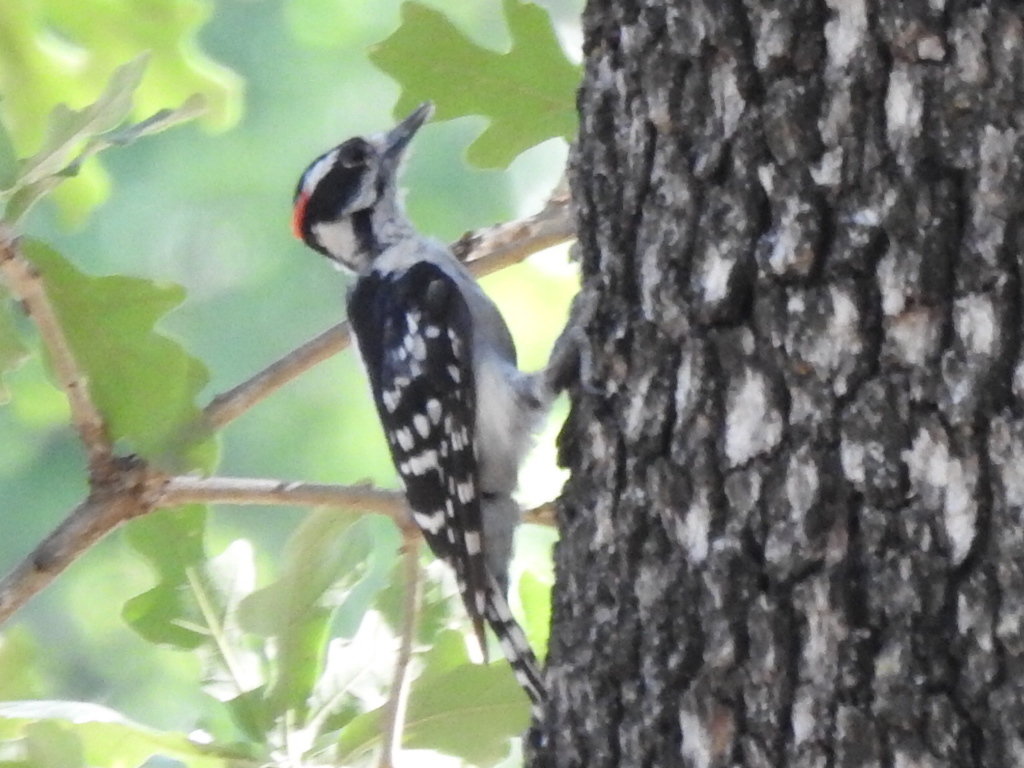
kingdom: Animalia
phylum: Chordata
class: Aves
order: Piciformes
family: Picidae
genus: Dryobates
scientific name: Dryobates pubescens
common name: Downy woodpecker
